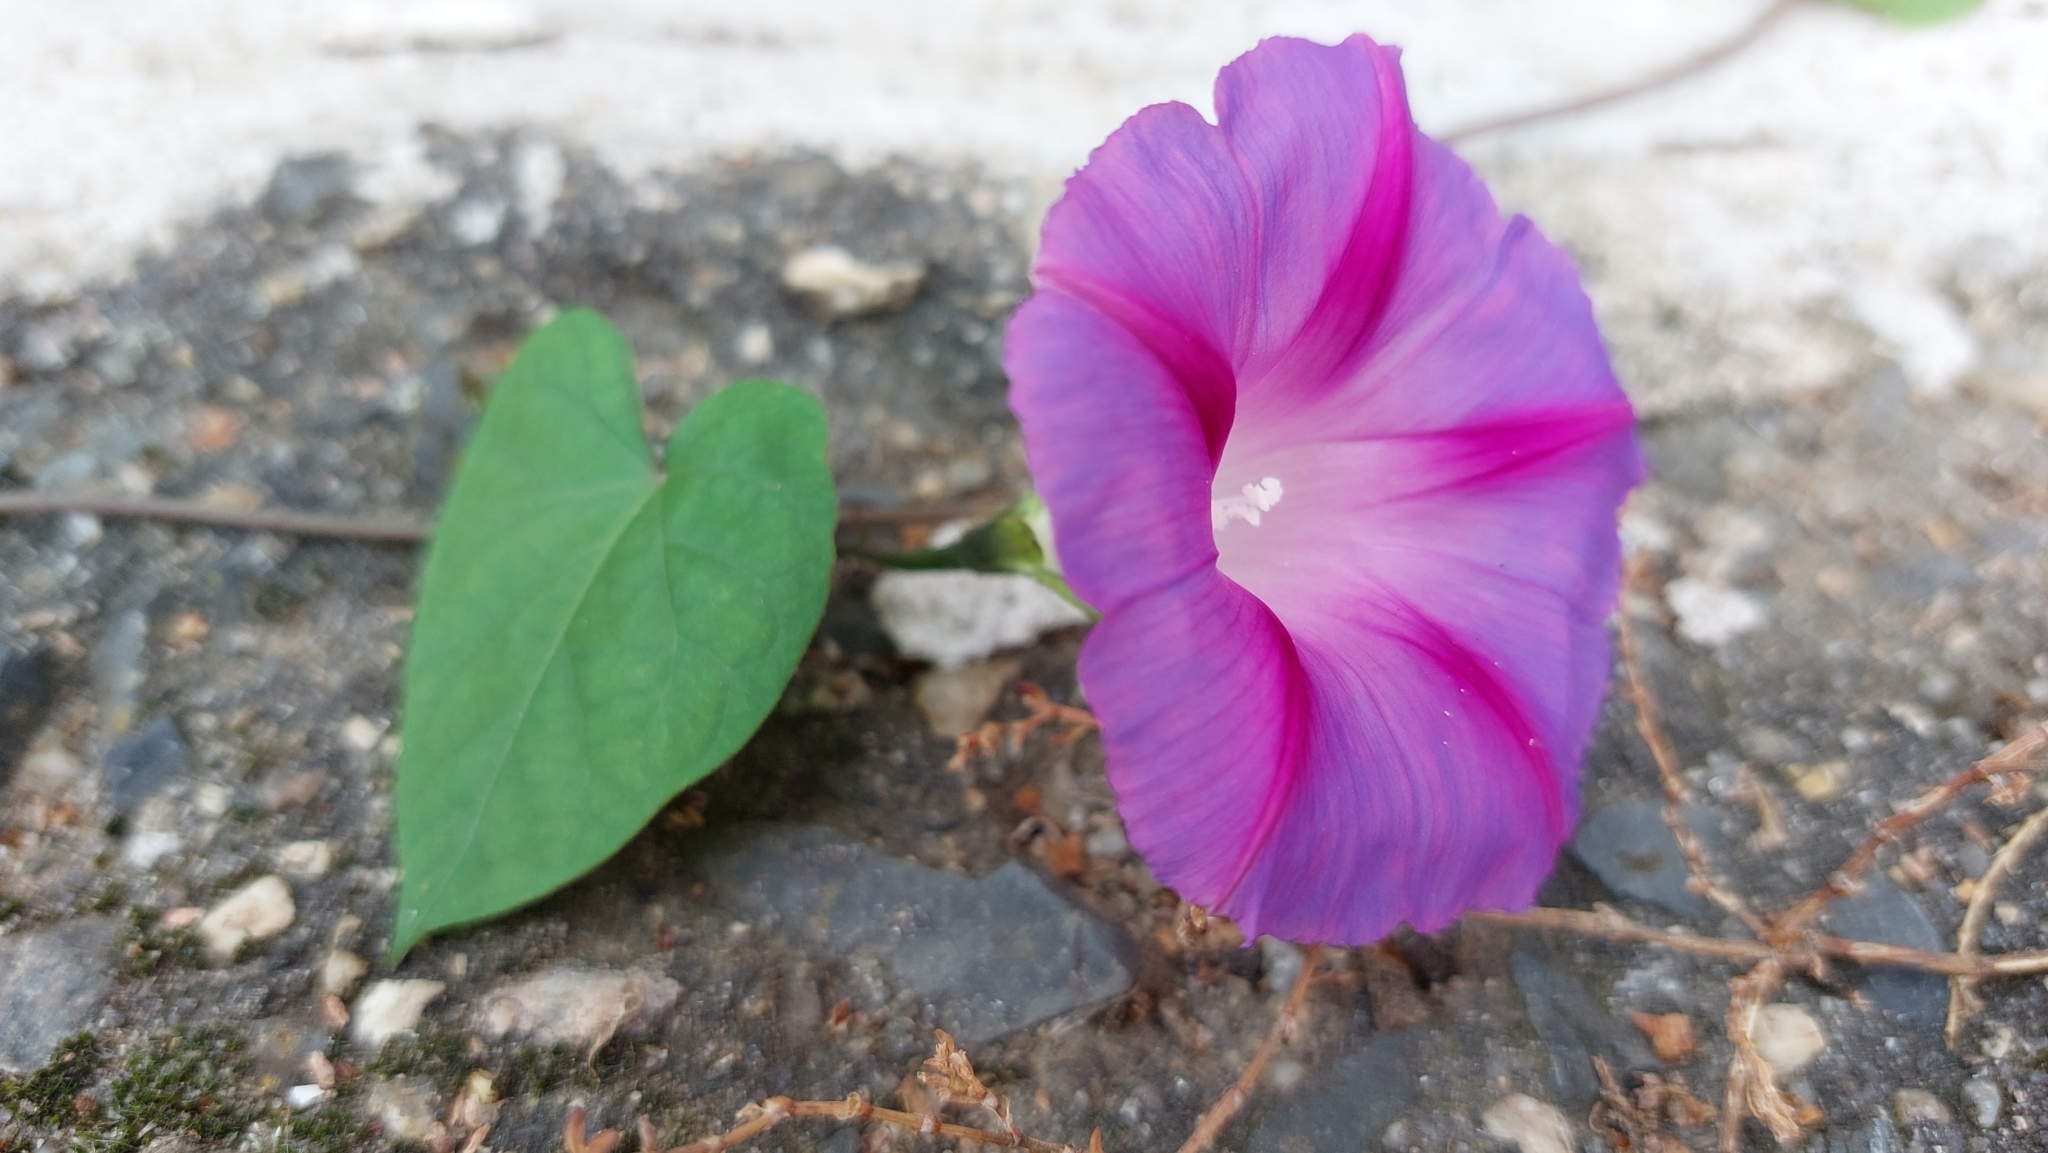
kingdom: Plantae
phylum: Tracheophyta
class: Magnoliopsida
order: Solanales
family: Convolvulaceae
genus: Ipomoea
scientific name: Ipomoea purpurea
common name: Common morning-glory
